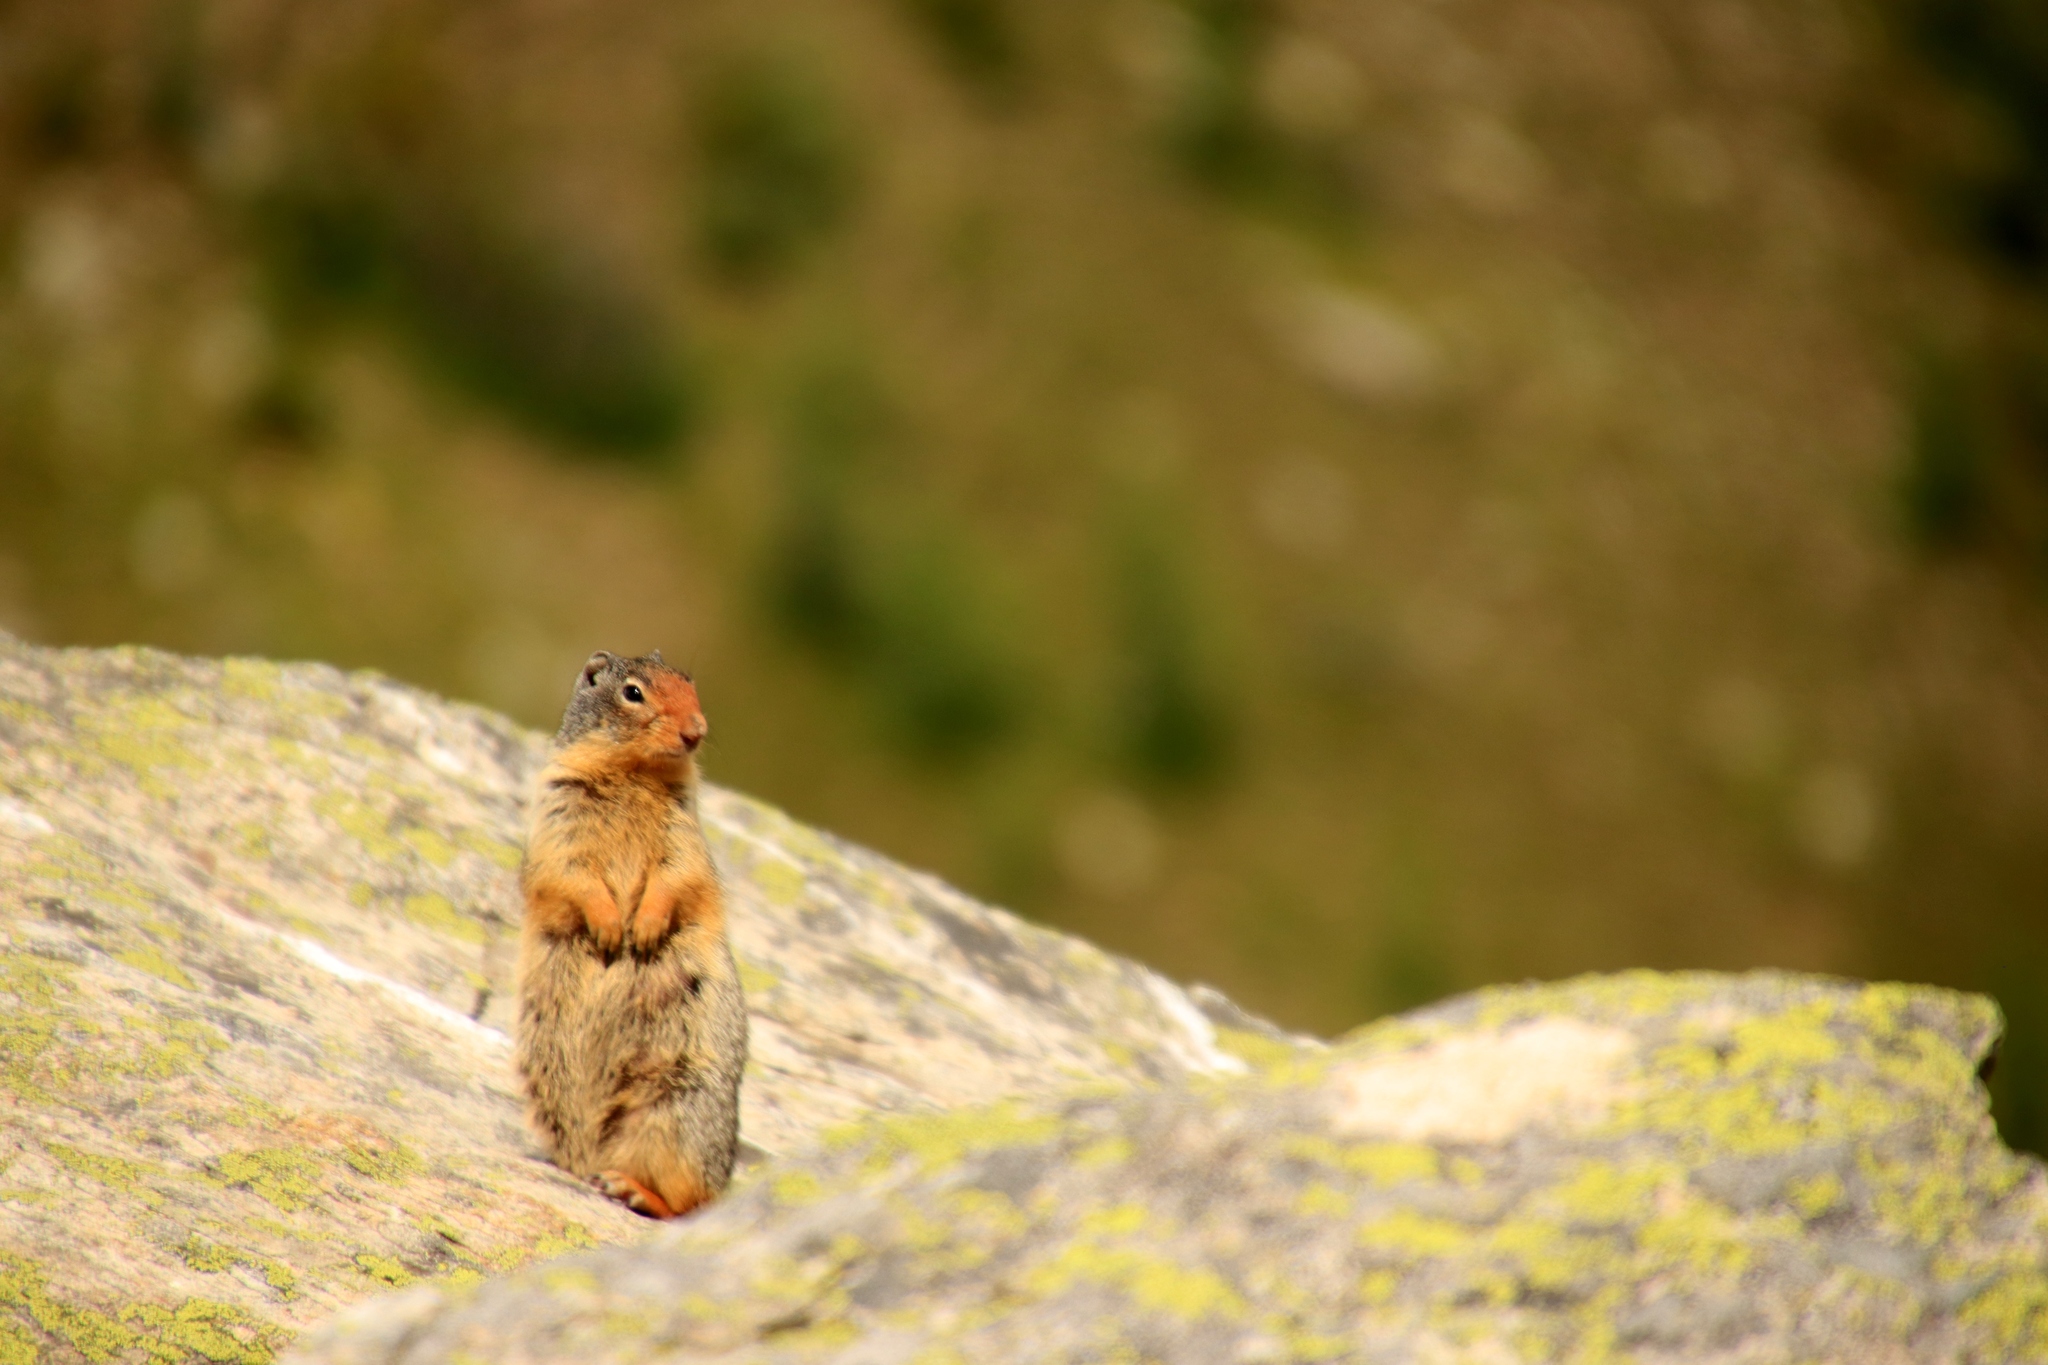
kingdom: Animalia
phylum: Chordata
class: Mammalia
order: Rodentia
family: Sciuridae
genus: Urocitellus
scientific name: Urocitellus columbianus
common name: Columbian ground squirrel
